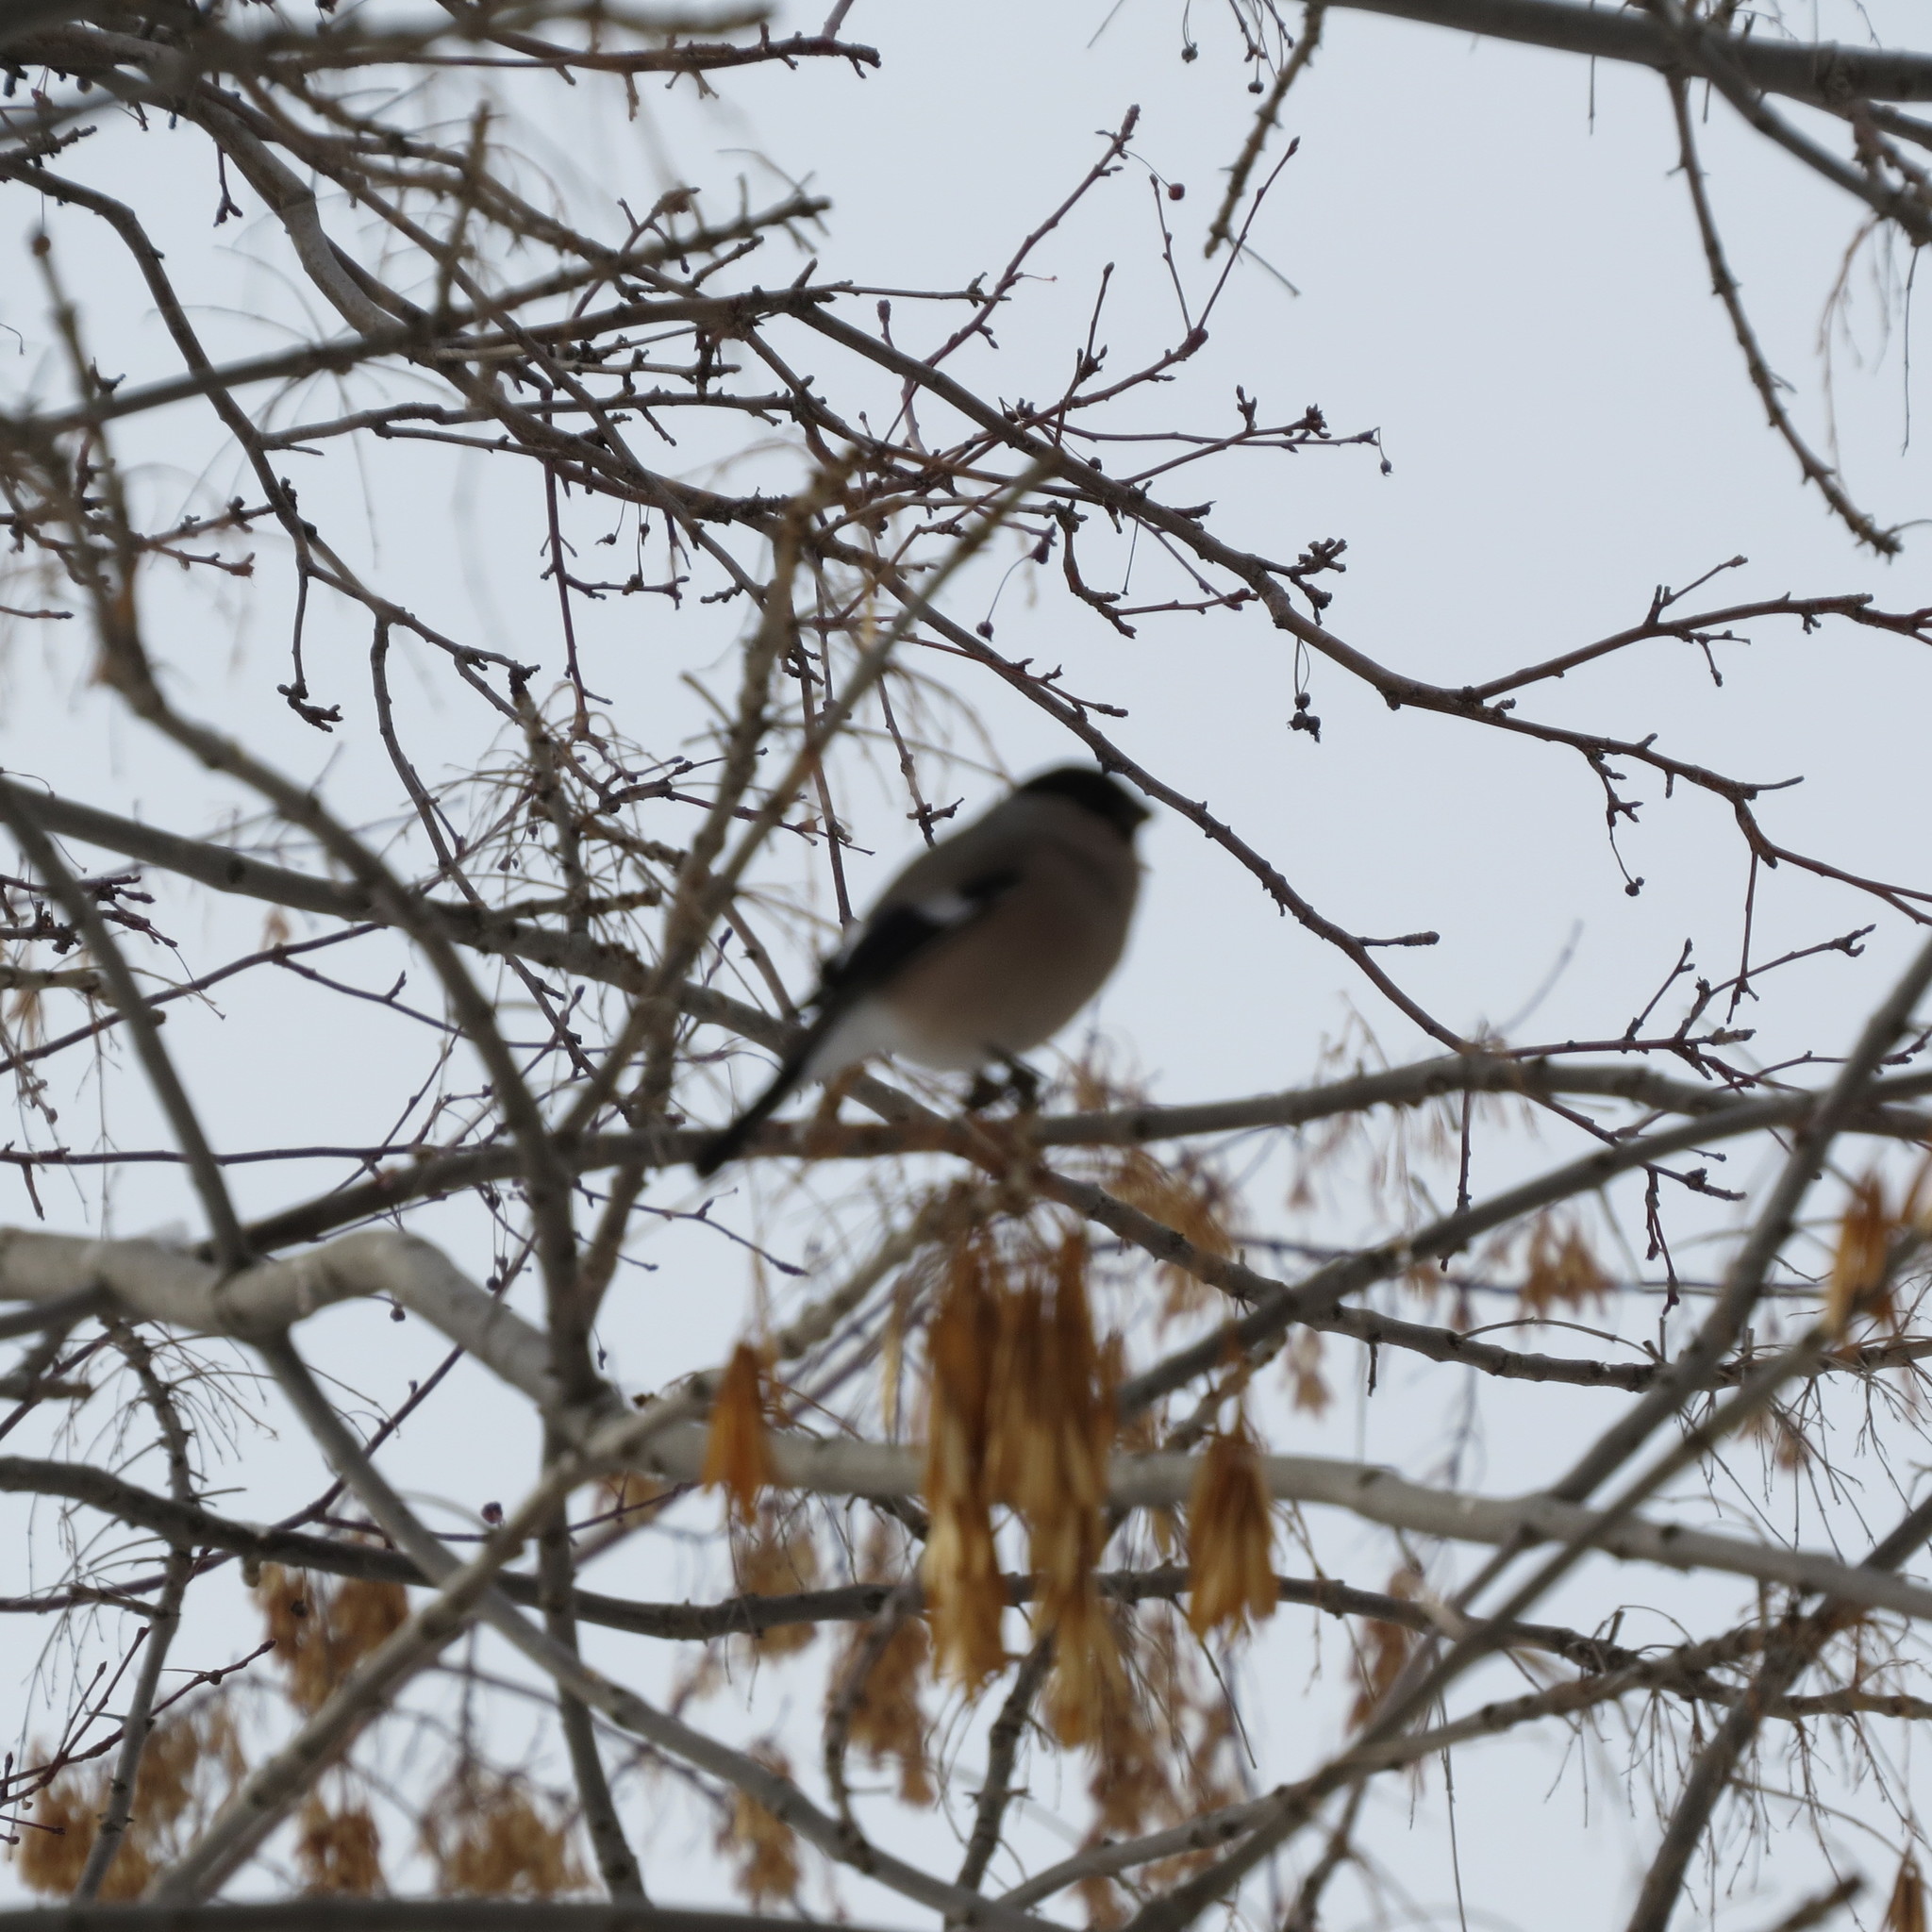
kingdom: Animalia
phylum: Chordata
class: Aves
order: Passeriformes
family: Fringillidae
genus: Pyrrhula
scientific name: Pyrrhula pyrrhula
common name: Eurasian bullfinch
